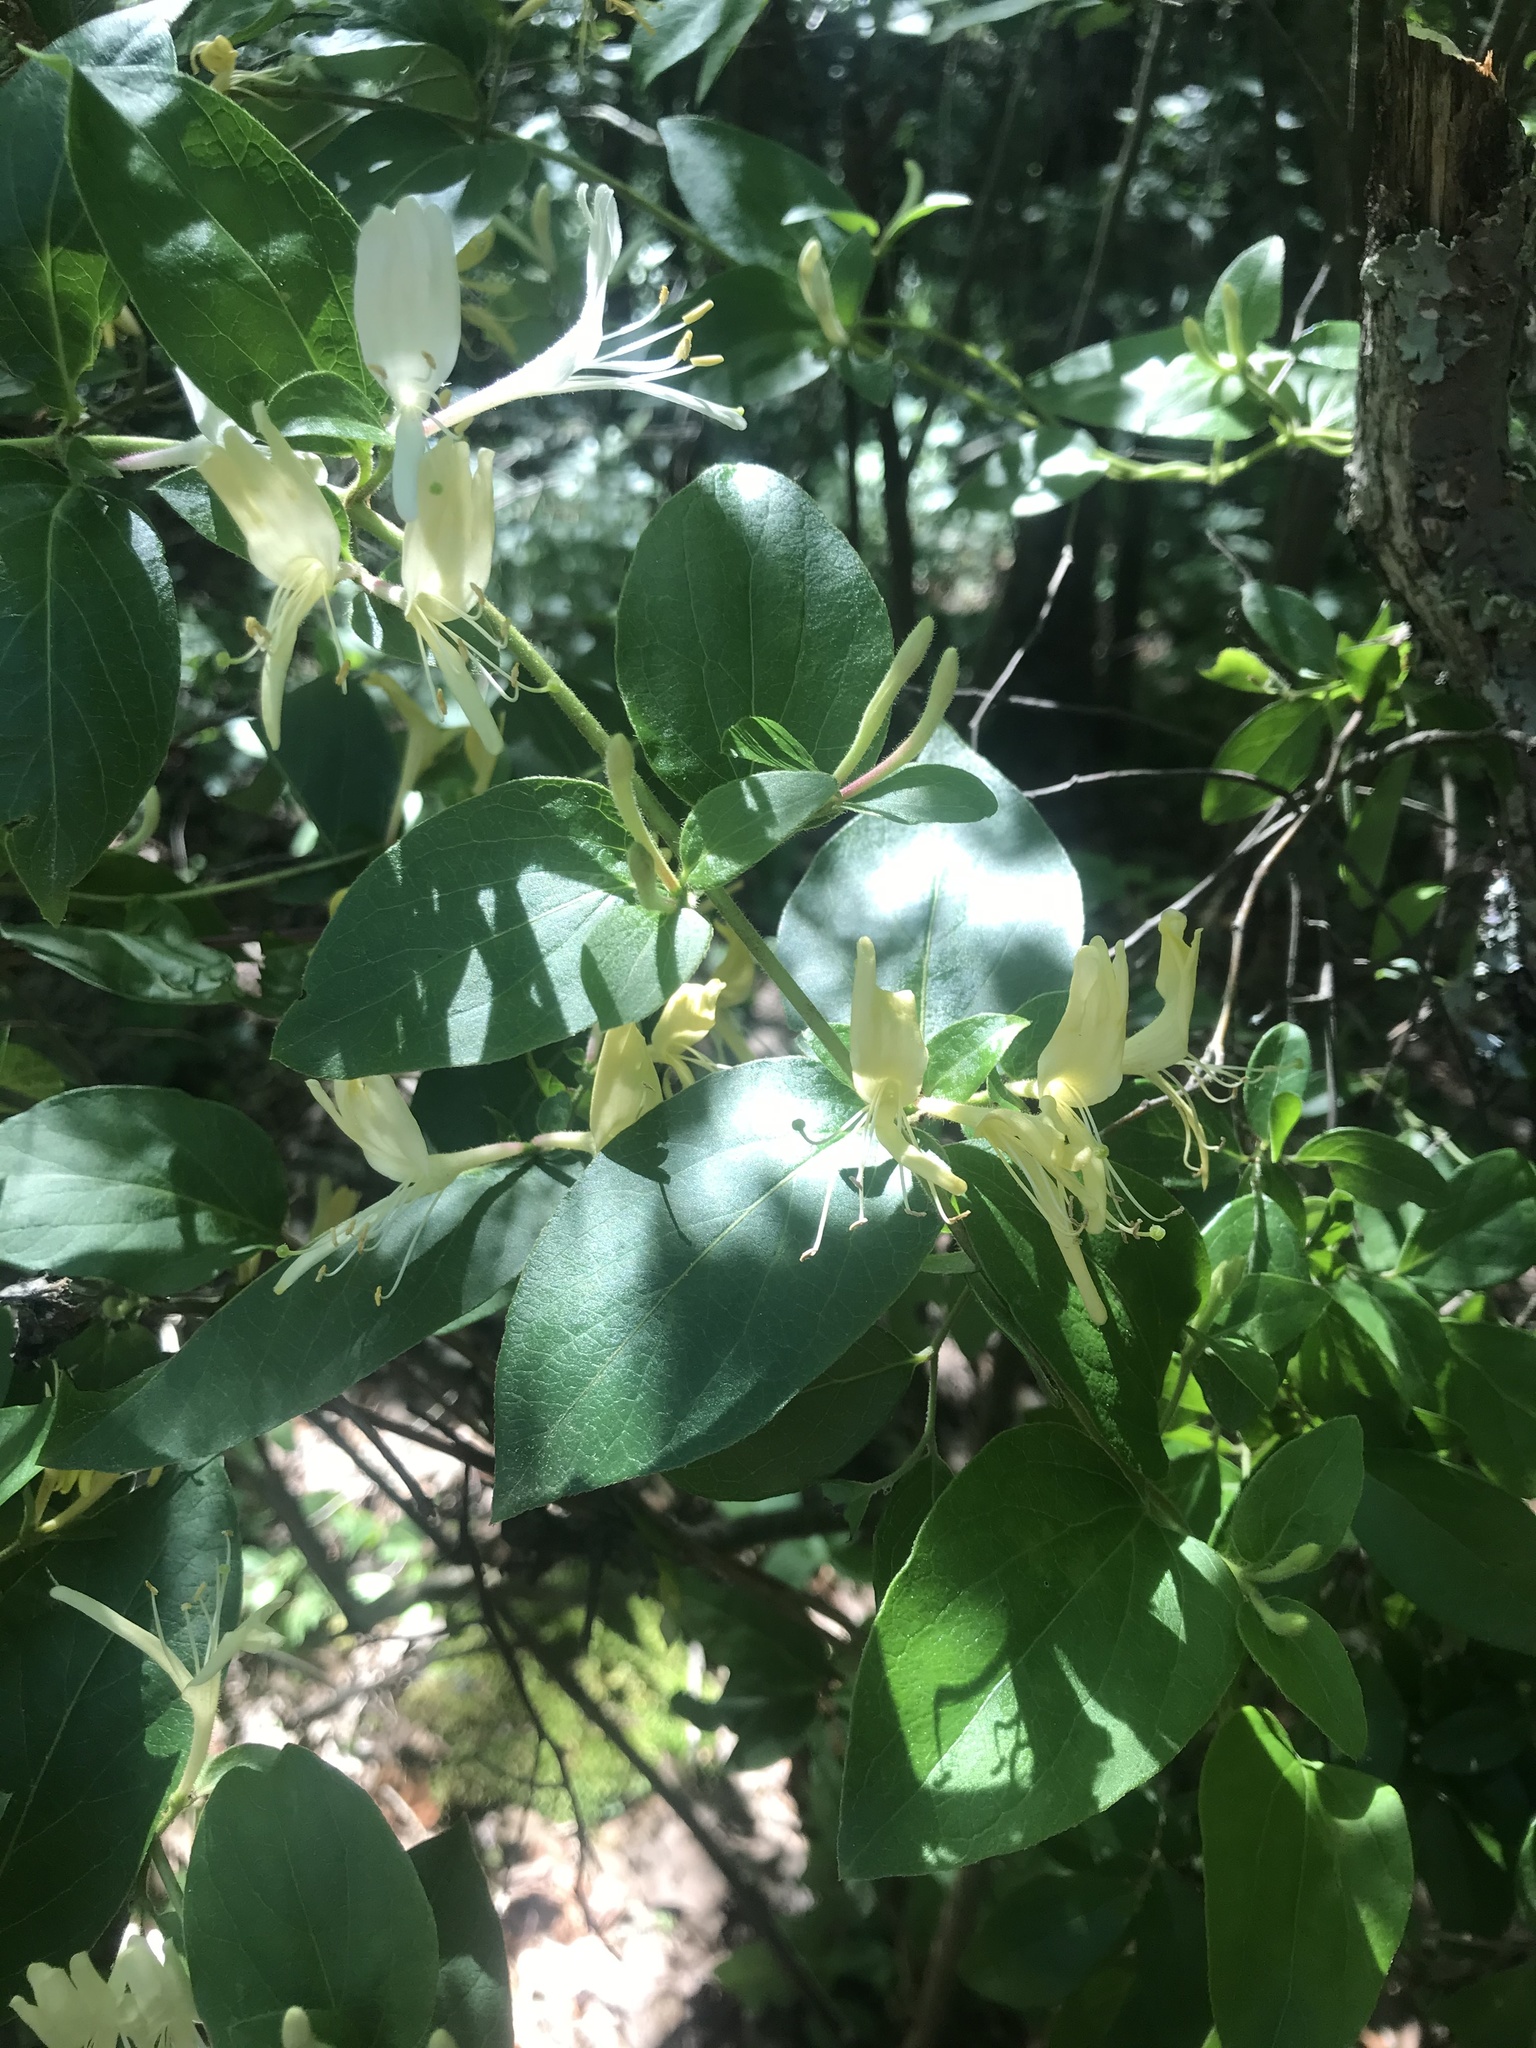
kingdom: Plantae
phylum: Tracheophyta
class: Magnoliopsida
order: Dipsacales
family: Caprifoliaceae
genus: Lonicera
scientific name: Lonicera japonica
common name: Japanese honeysuckle
